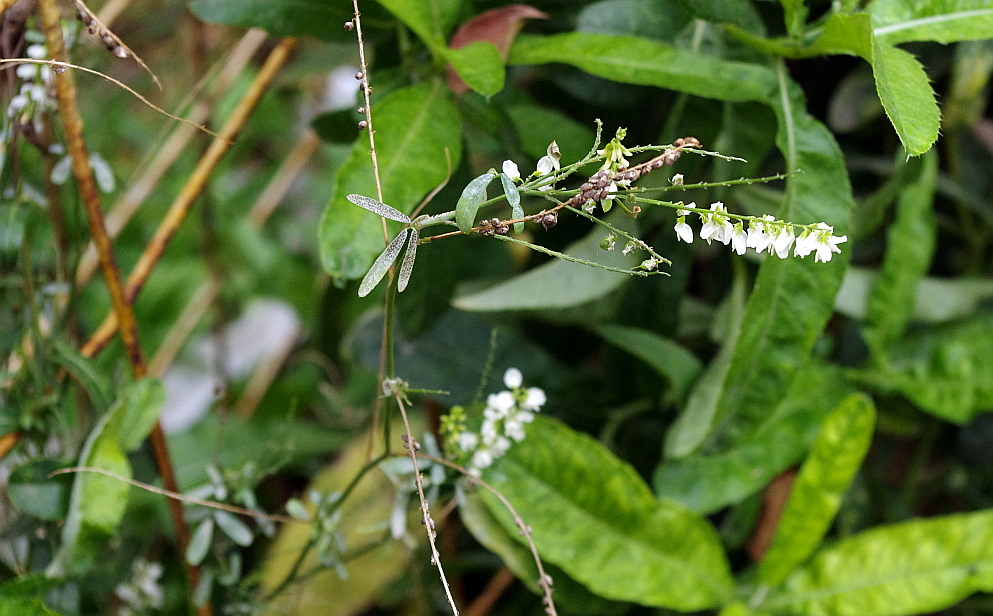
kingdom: Plantae
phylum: Tracheophyta
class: Magnoliopsida
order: Fabales
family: Fabaceae
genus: Melilotus
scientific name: Melilotus albus
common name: White melilot
